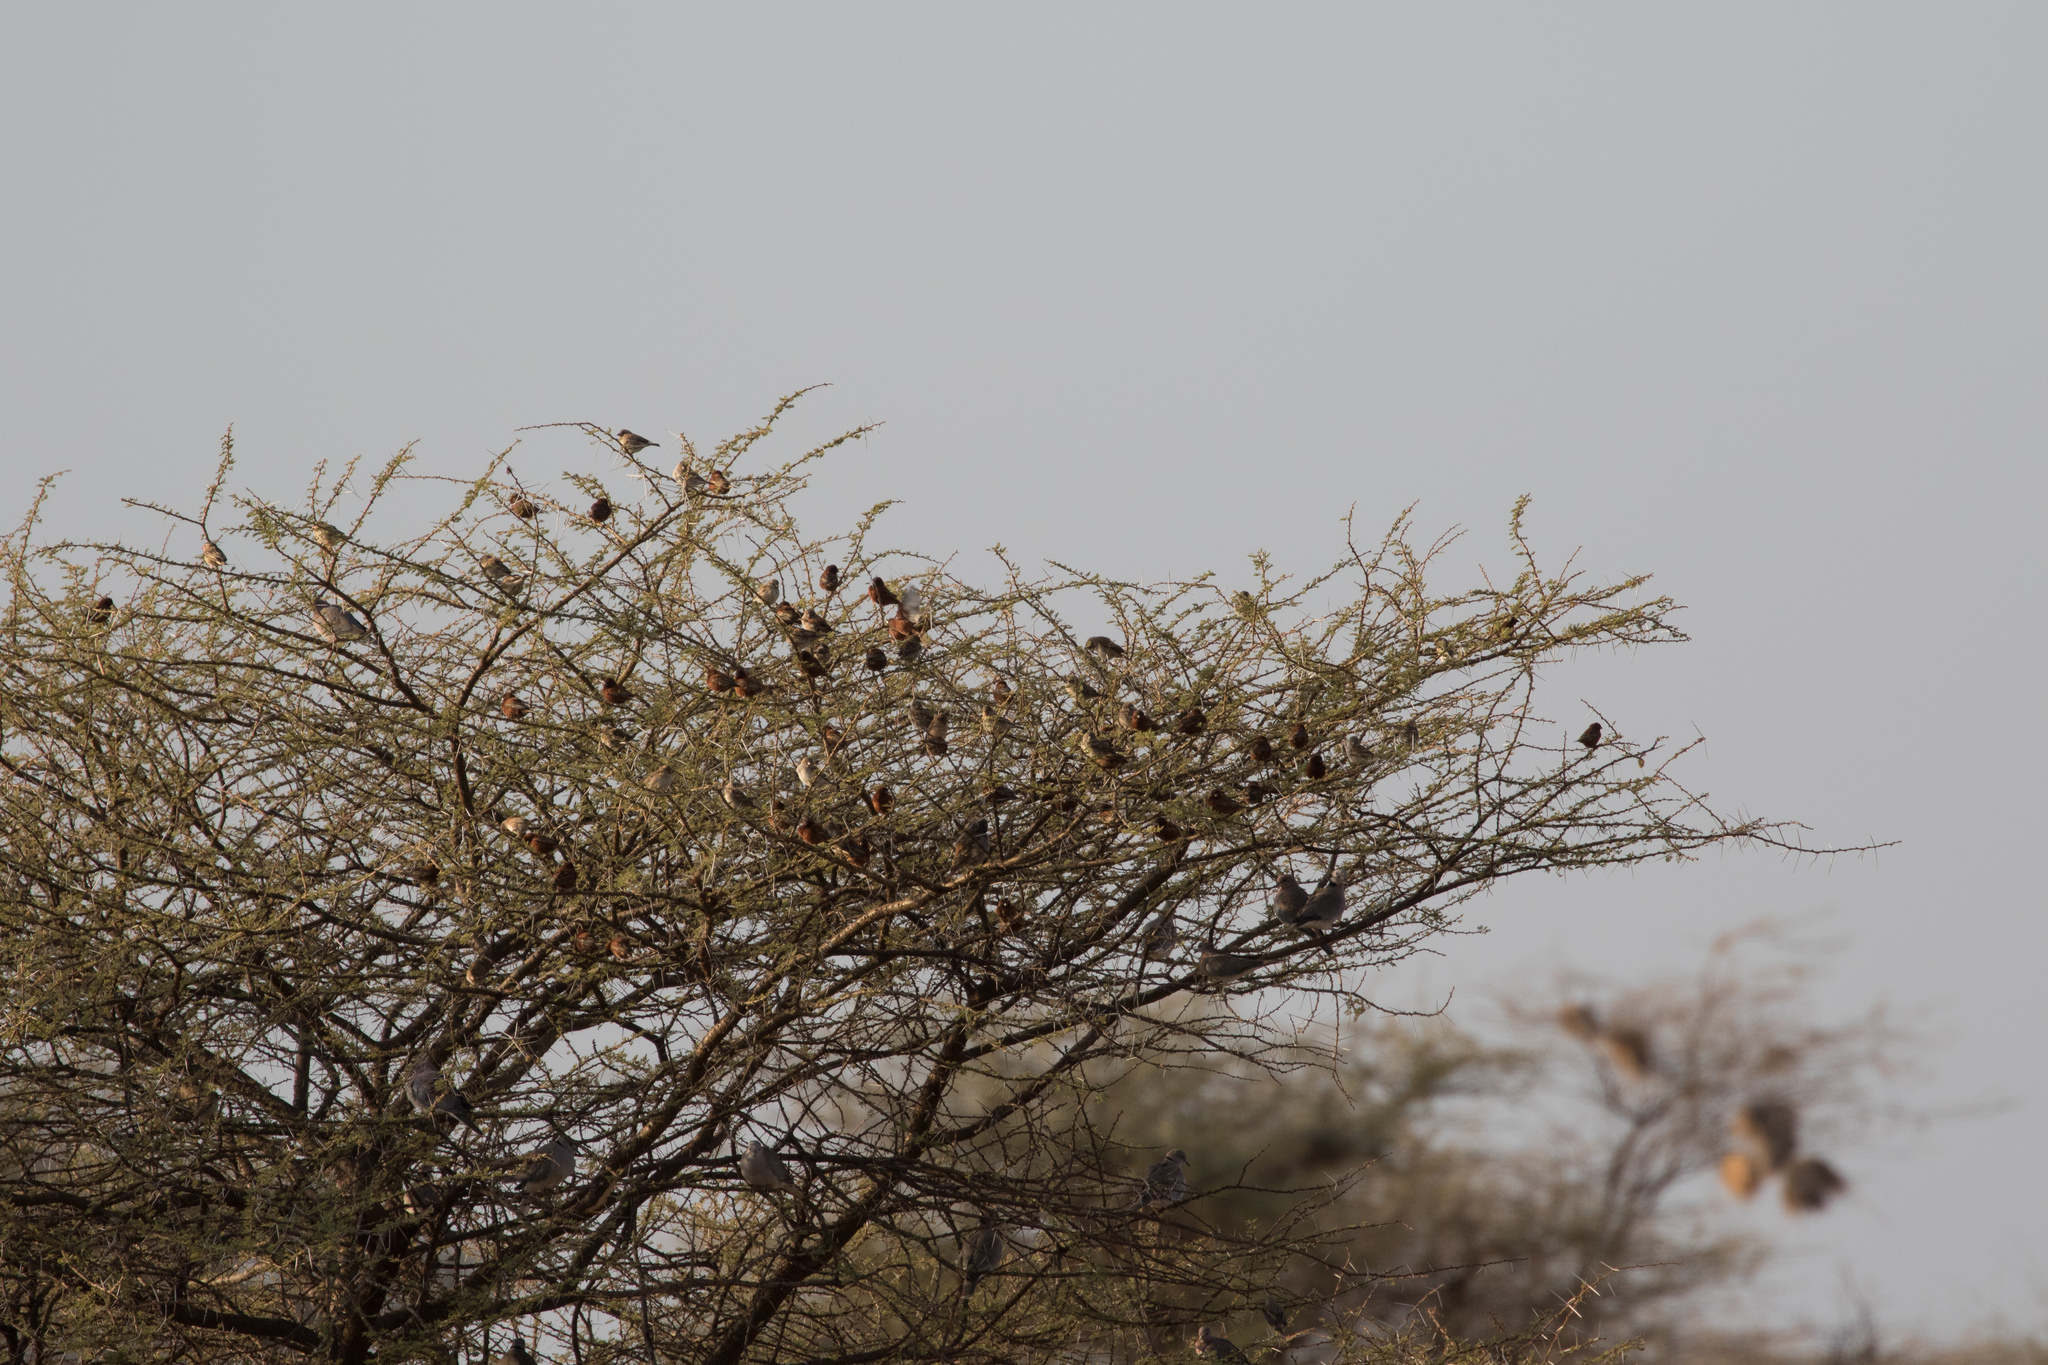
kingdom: Animalia
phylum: Chordata
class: Aves
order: Passeriformes
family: Passeridae
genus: Passer
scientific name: Passer eminibey
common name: Chestnut sparrow
